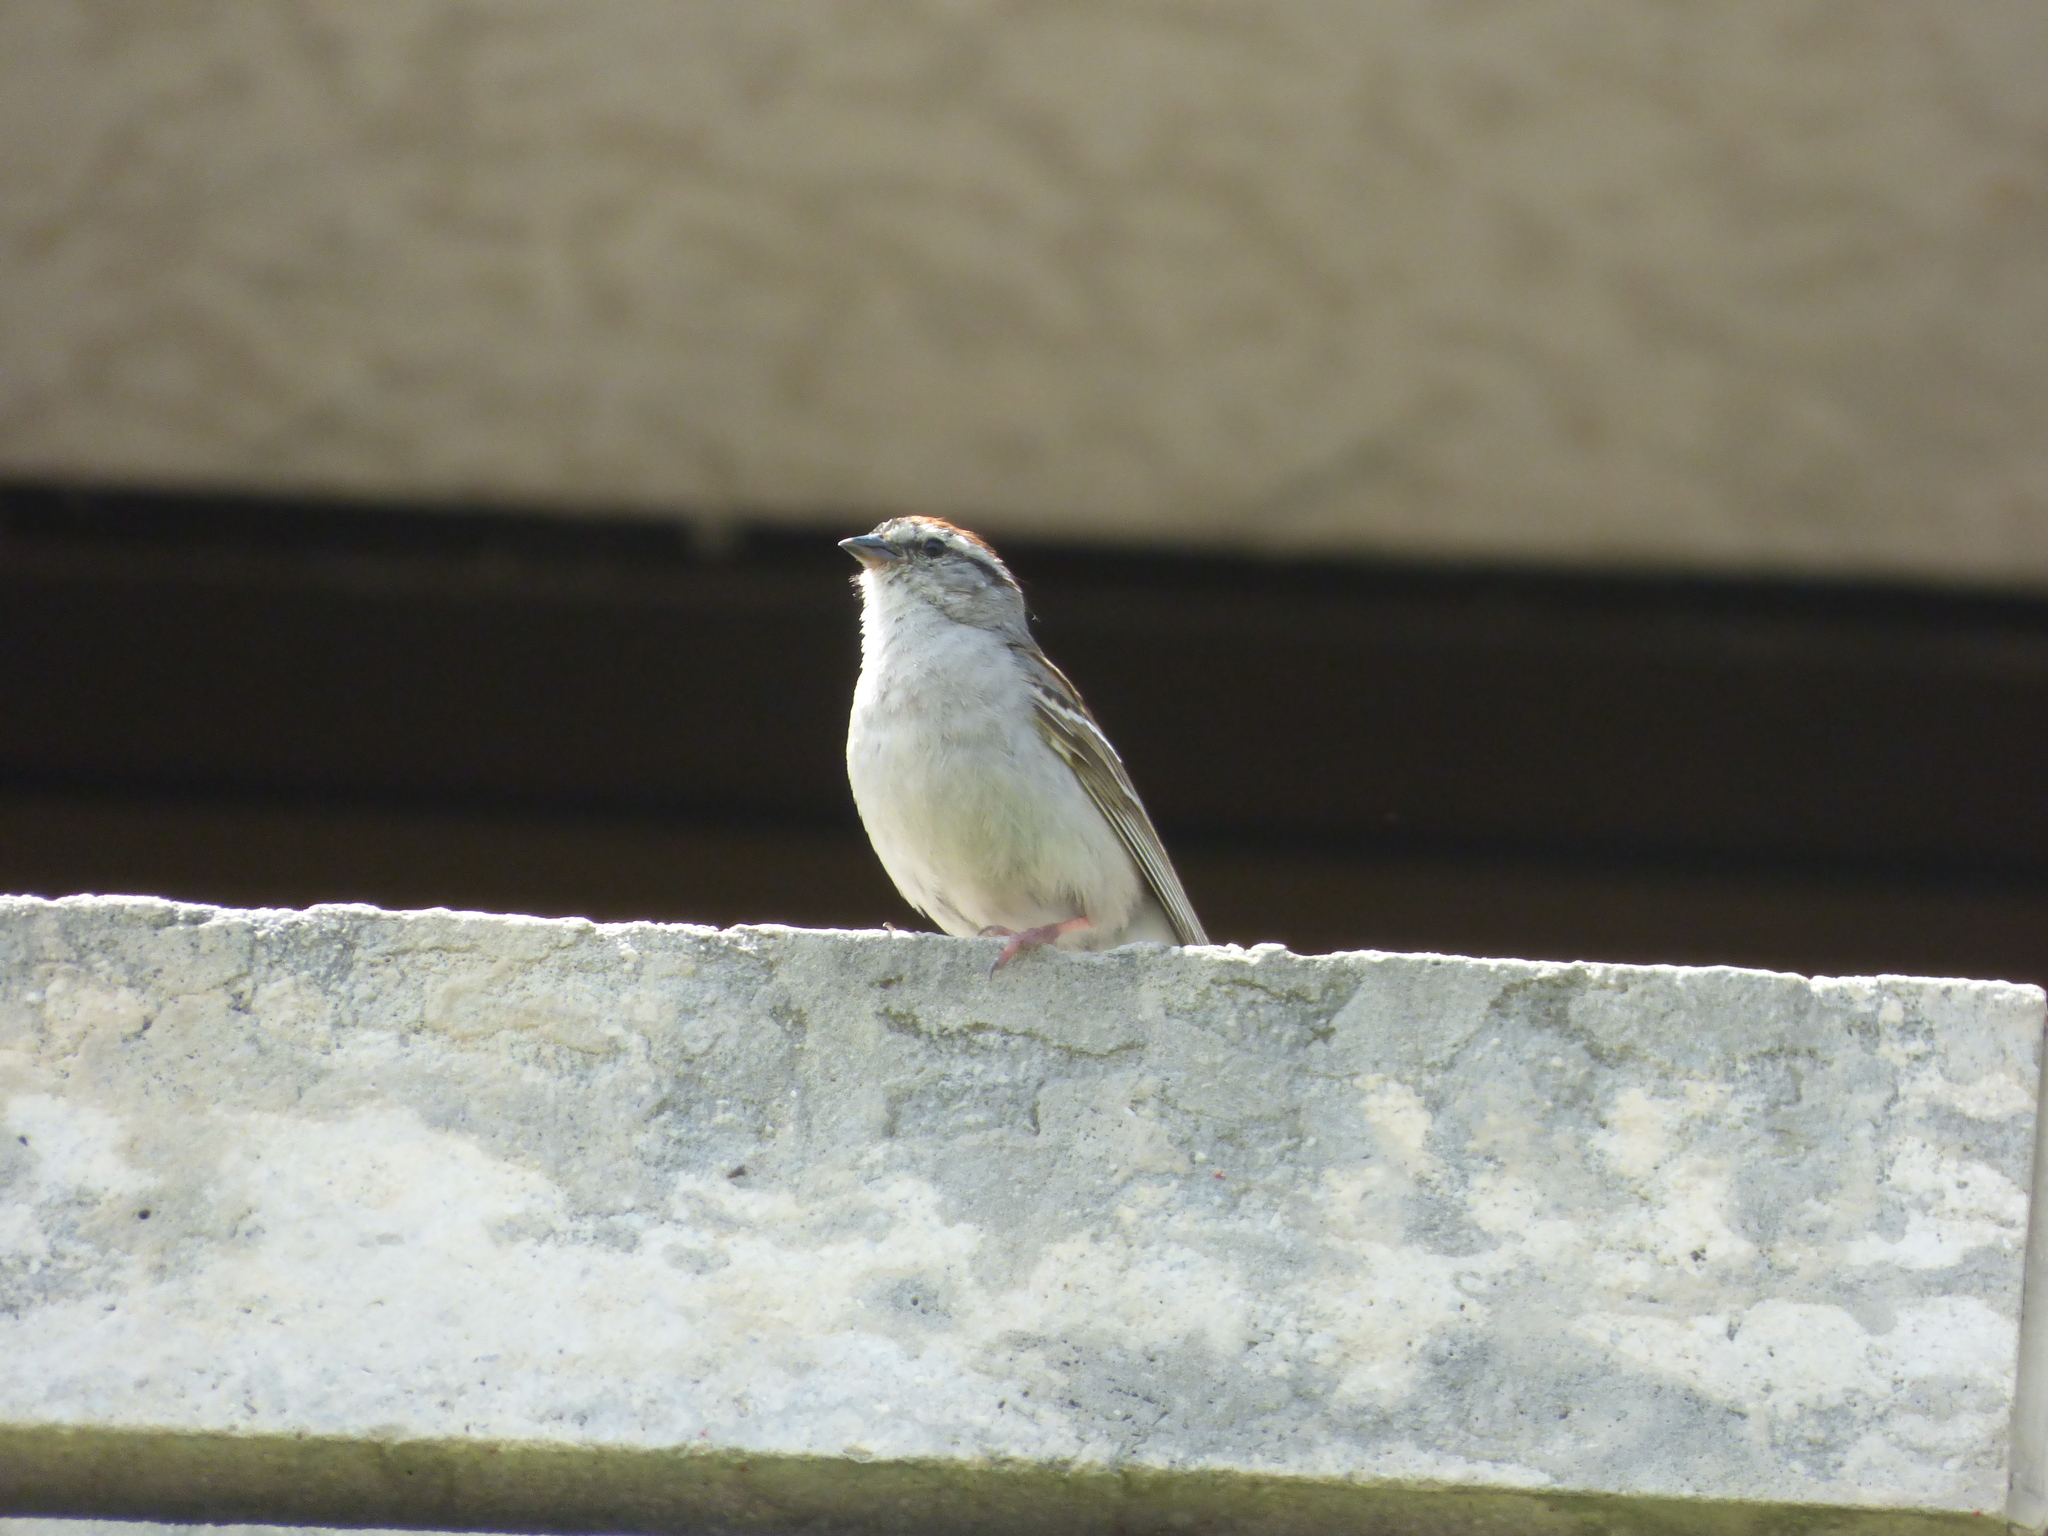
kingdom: Animalia
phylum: Chordata
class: Aves
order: Passeriformes
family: Passerellidae
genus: Spizella
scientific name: Spizella passerina
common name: Chipping sparrow
